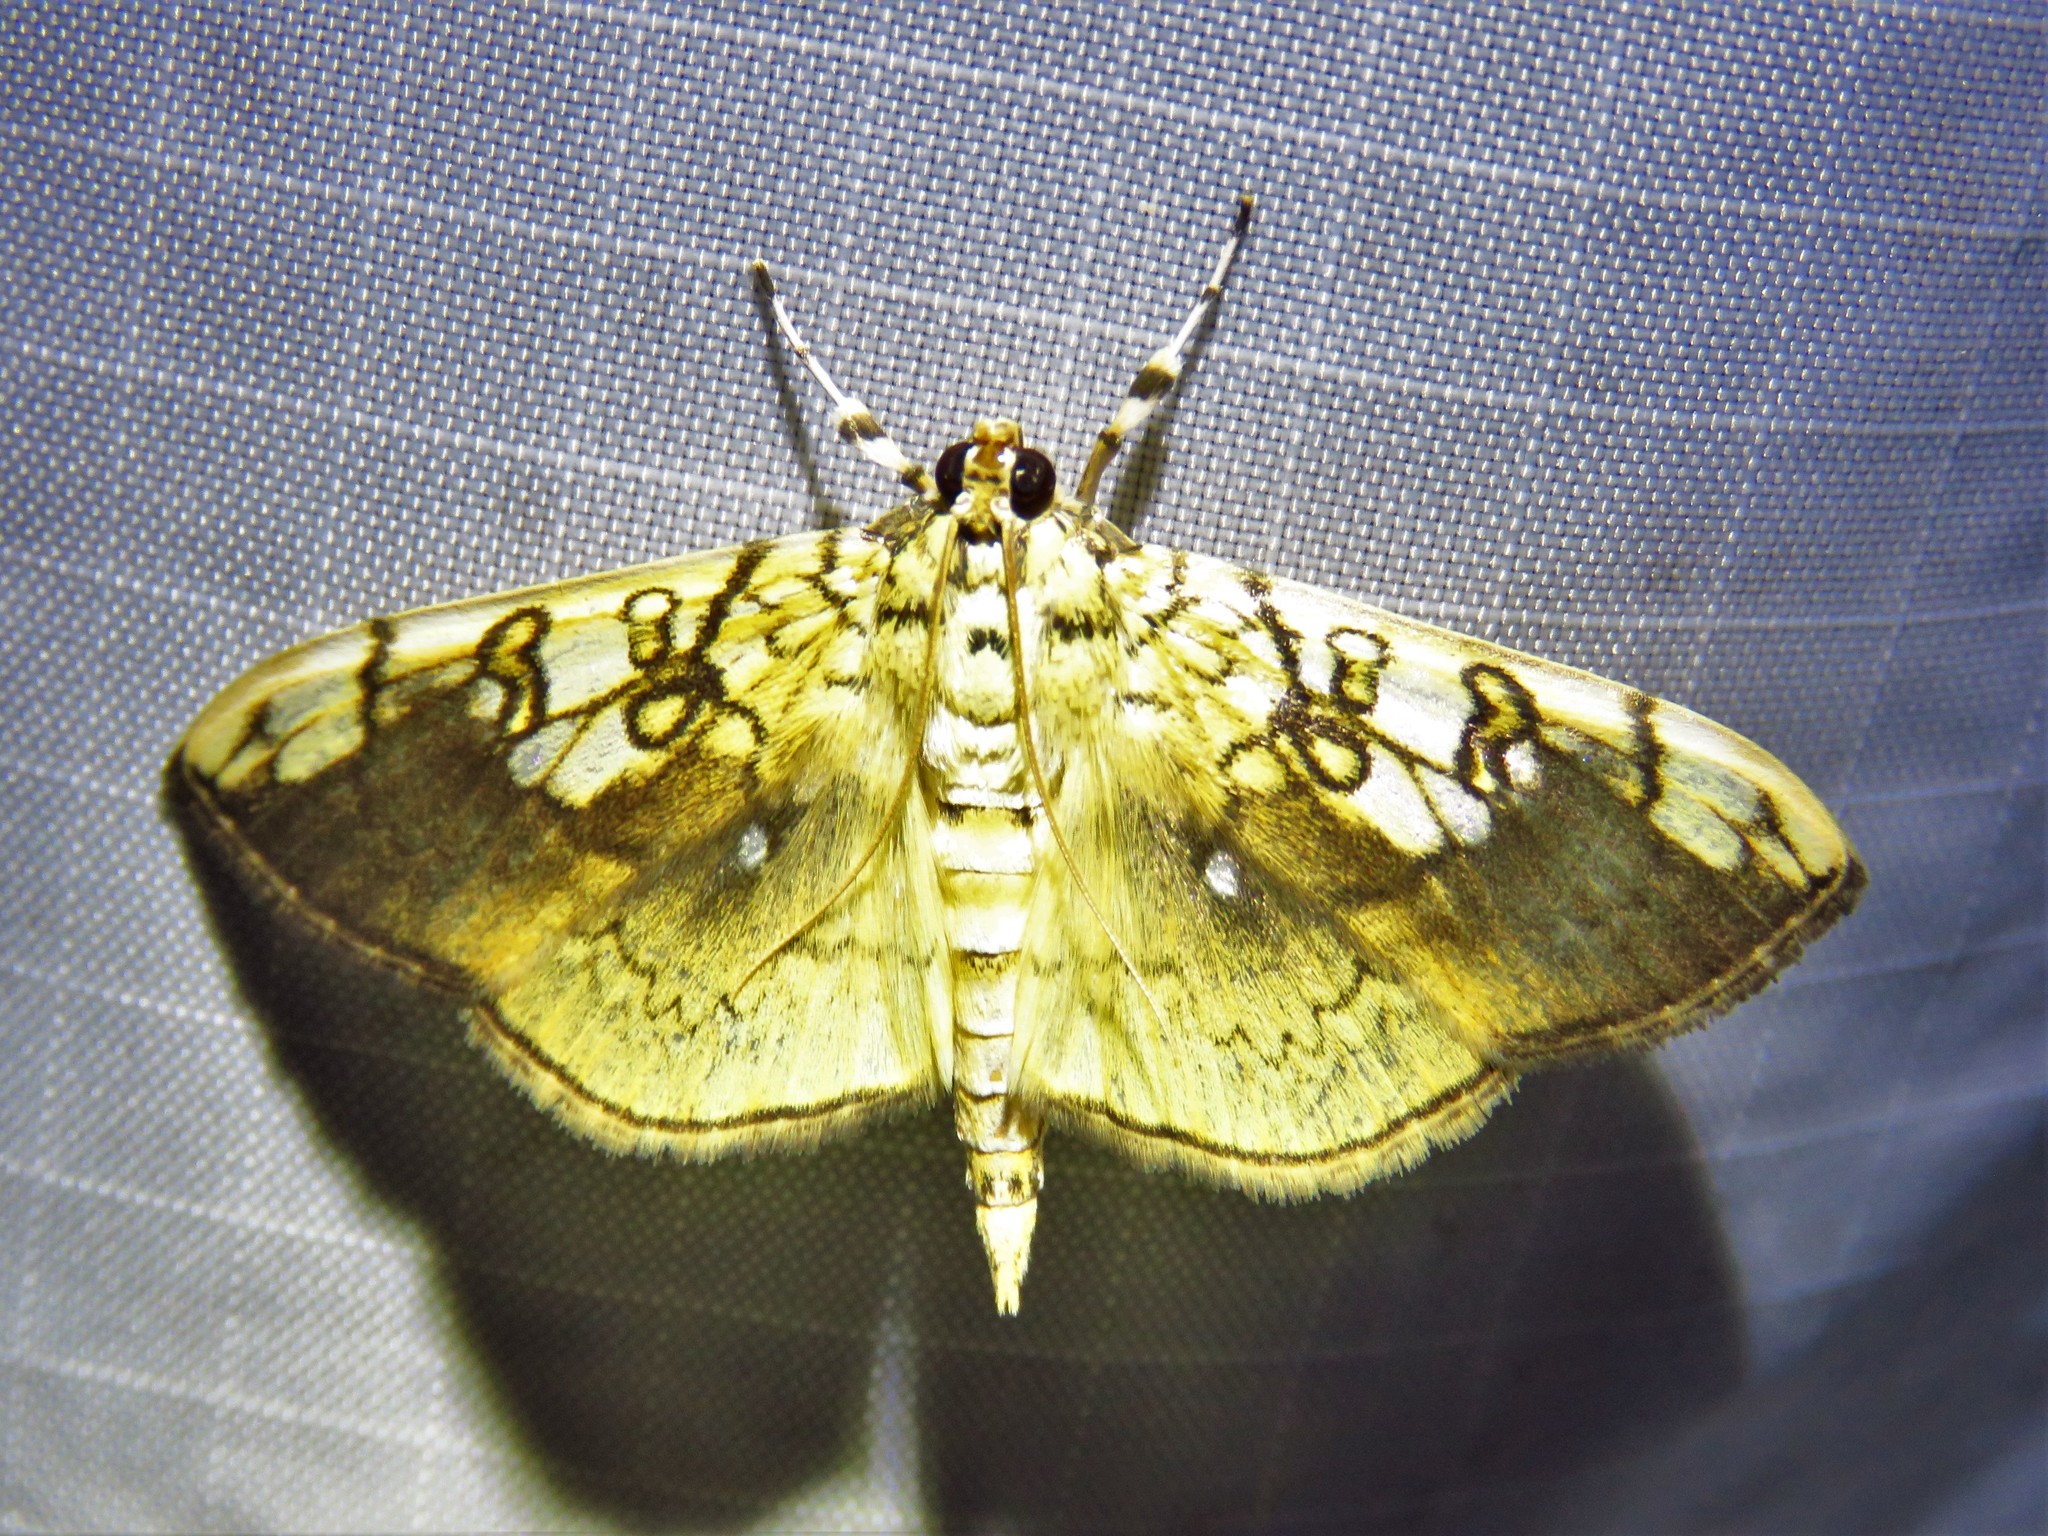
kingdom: Animalia
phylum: Arthropoda
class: Insecta
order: Lepidoptera
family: Crambidae
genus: Pantographa
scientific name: Pantographa limata
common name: Basswood leafroller moth
